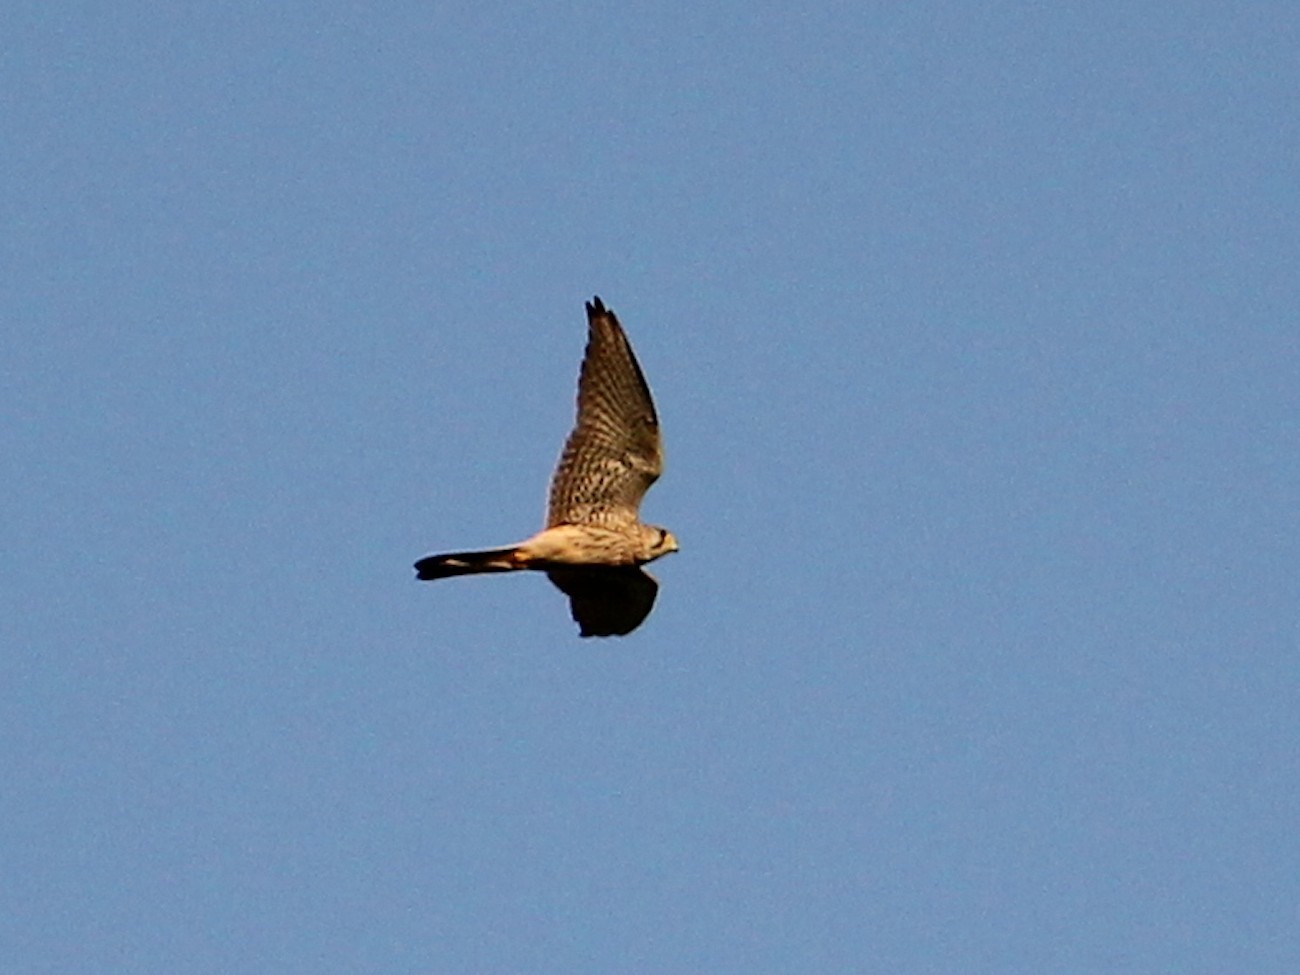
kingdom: Animalia
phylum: Chordata
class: Aves
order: Falconiformes
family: Falconidae
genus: Falco
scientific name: Falco tinnunculus
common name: Common kestrel
